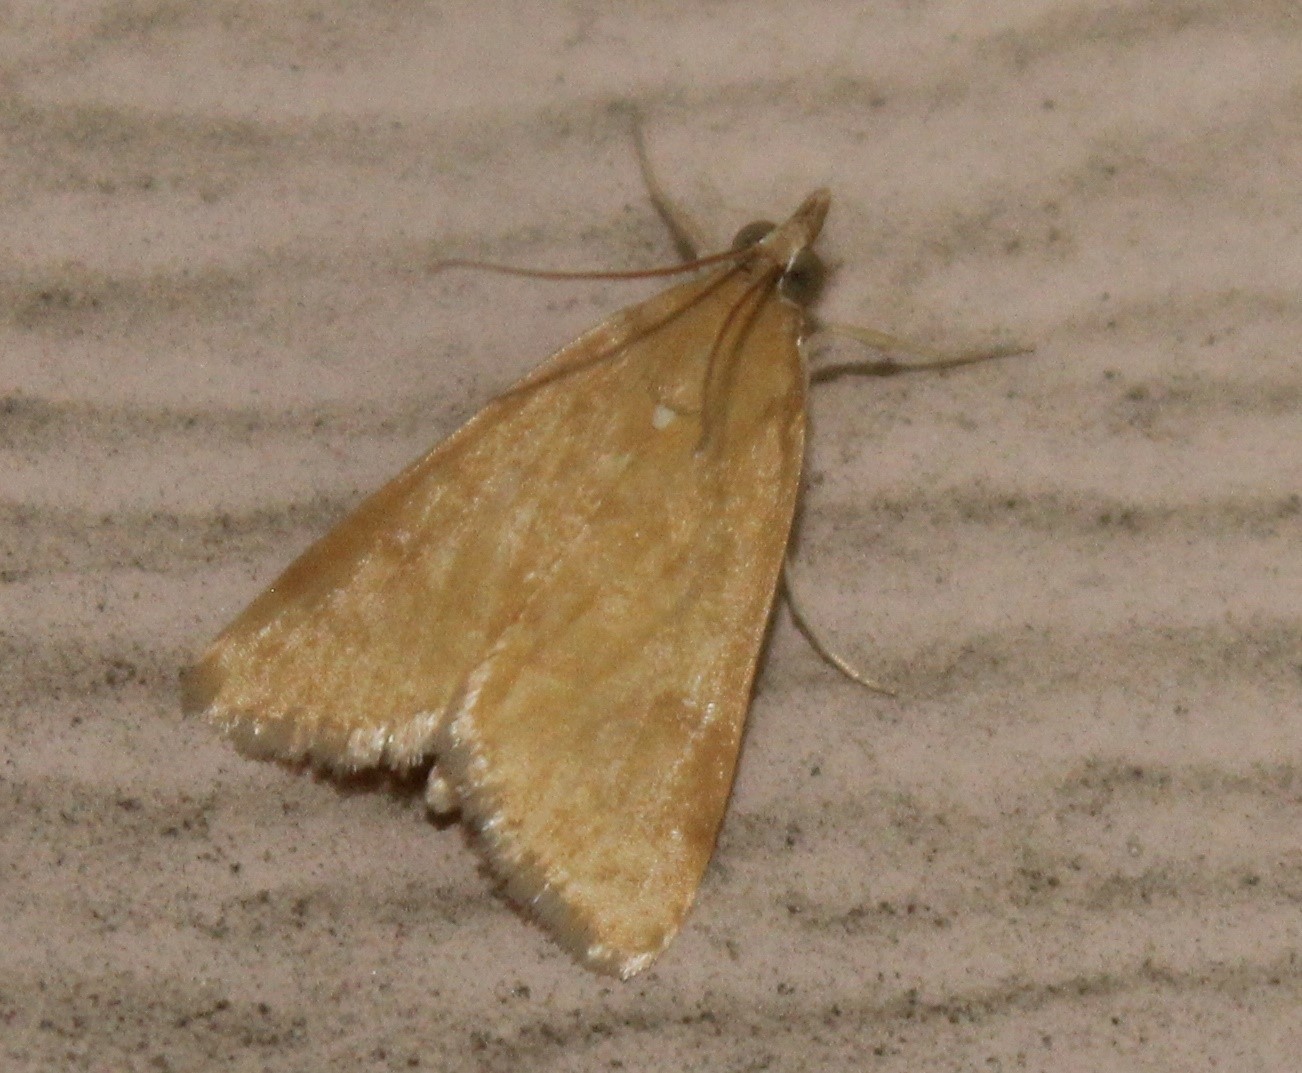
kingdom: Animalia
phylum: Arthropoda
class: Insecta
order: Lepidoptera
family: Crambidae
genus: Achyra
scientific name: Achyra rantalis
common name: Garden webworm
